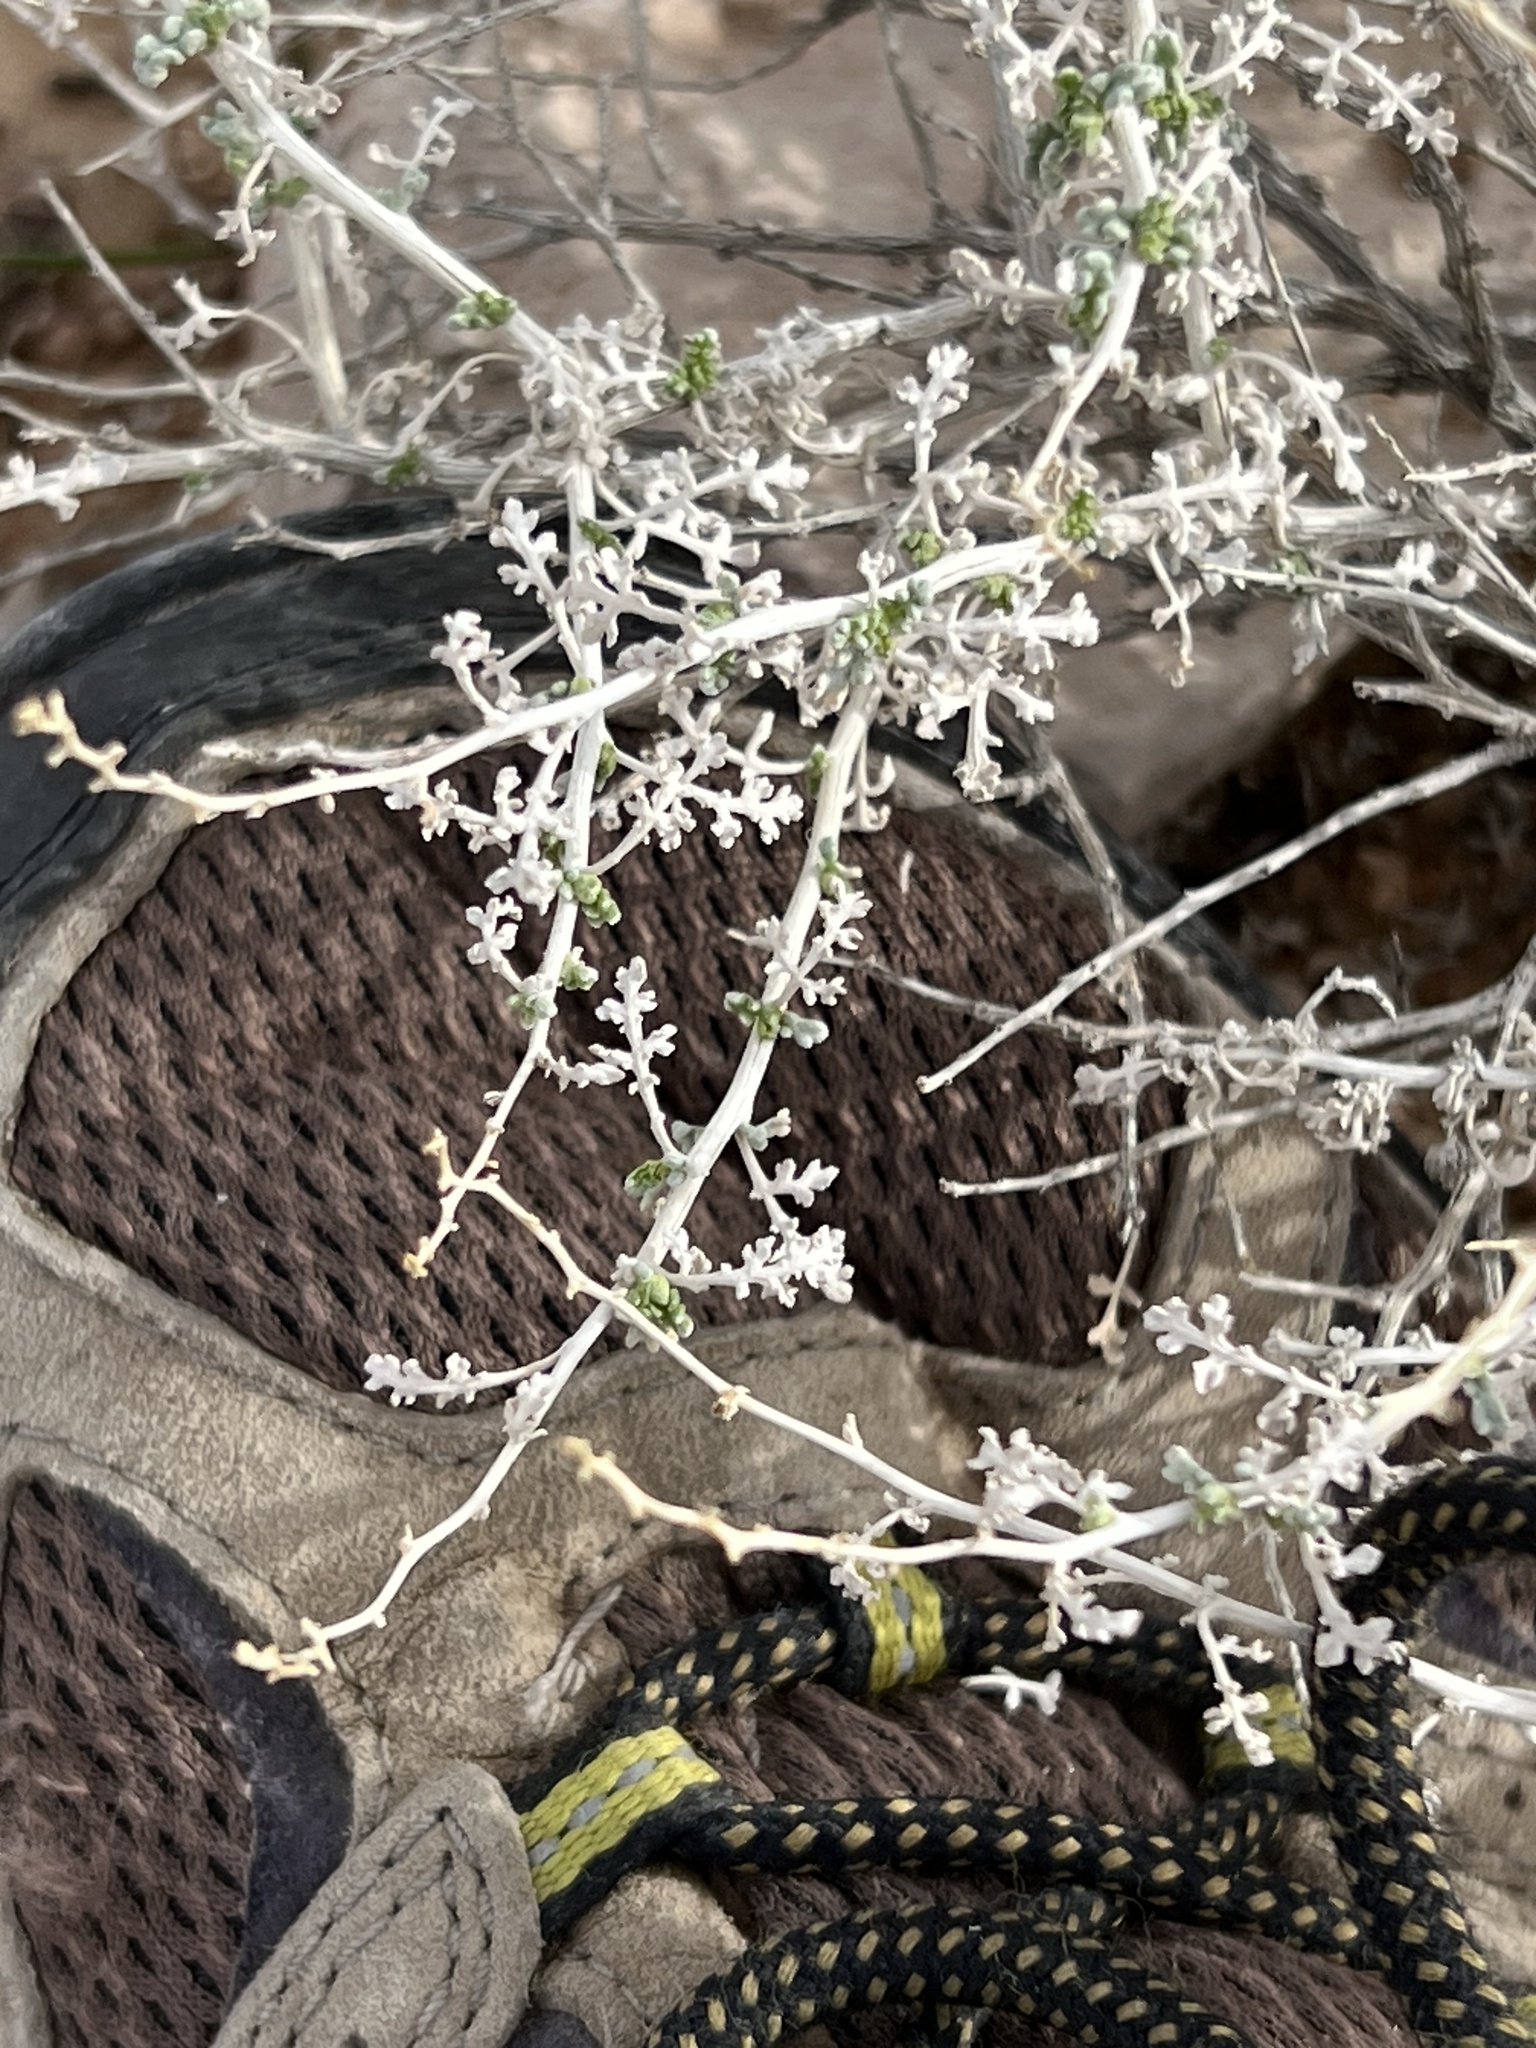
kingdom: Plantae
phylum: Tracheophyta
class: Magnoliopsida
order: Asterales
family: Asteraceae
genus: Ambrosia
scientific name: Ambrosia dumosa
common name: Bur-sage
